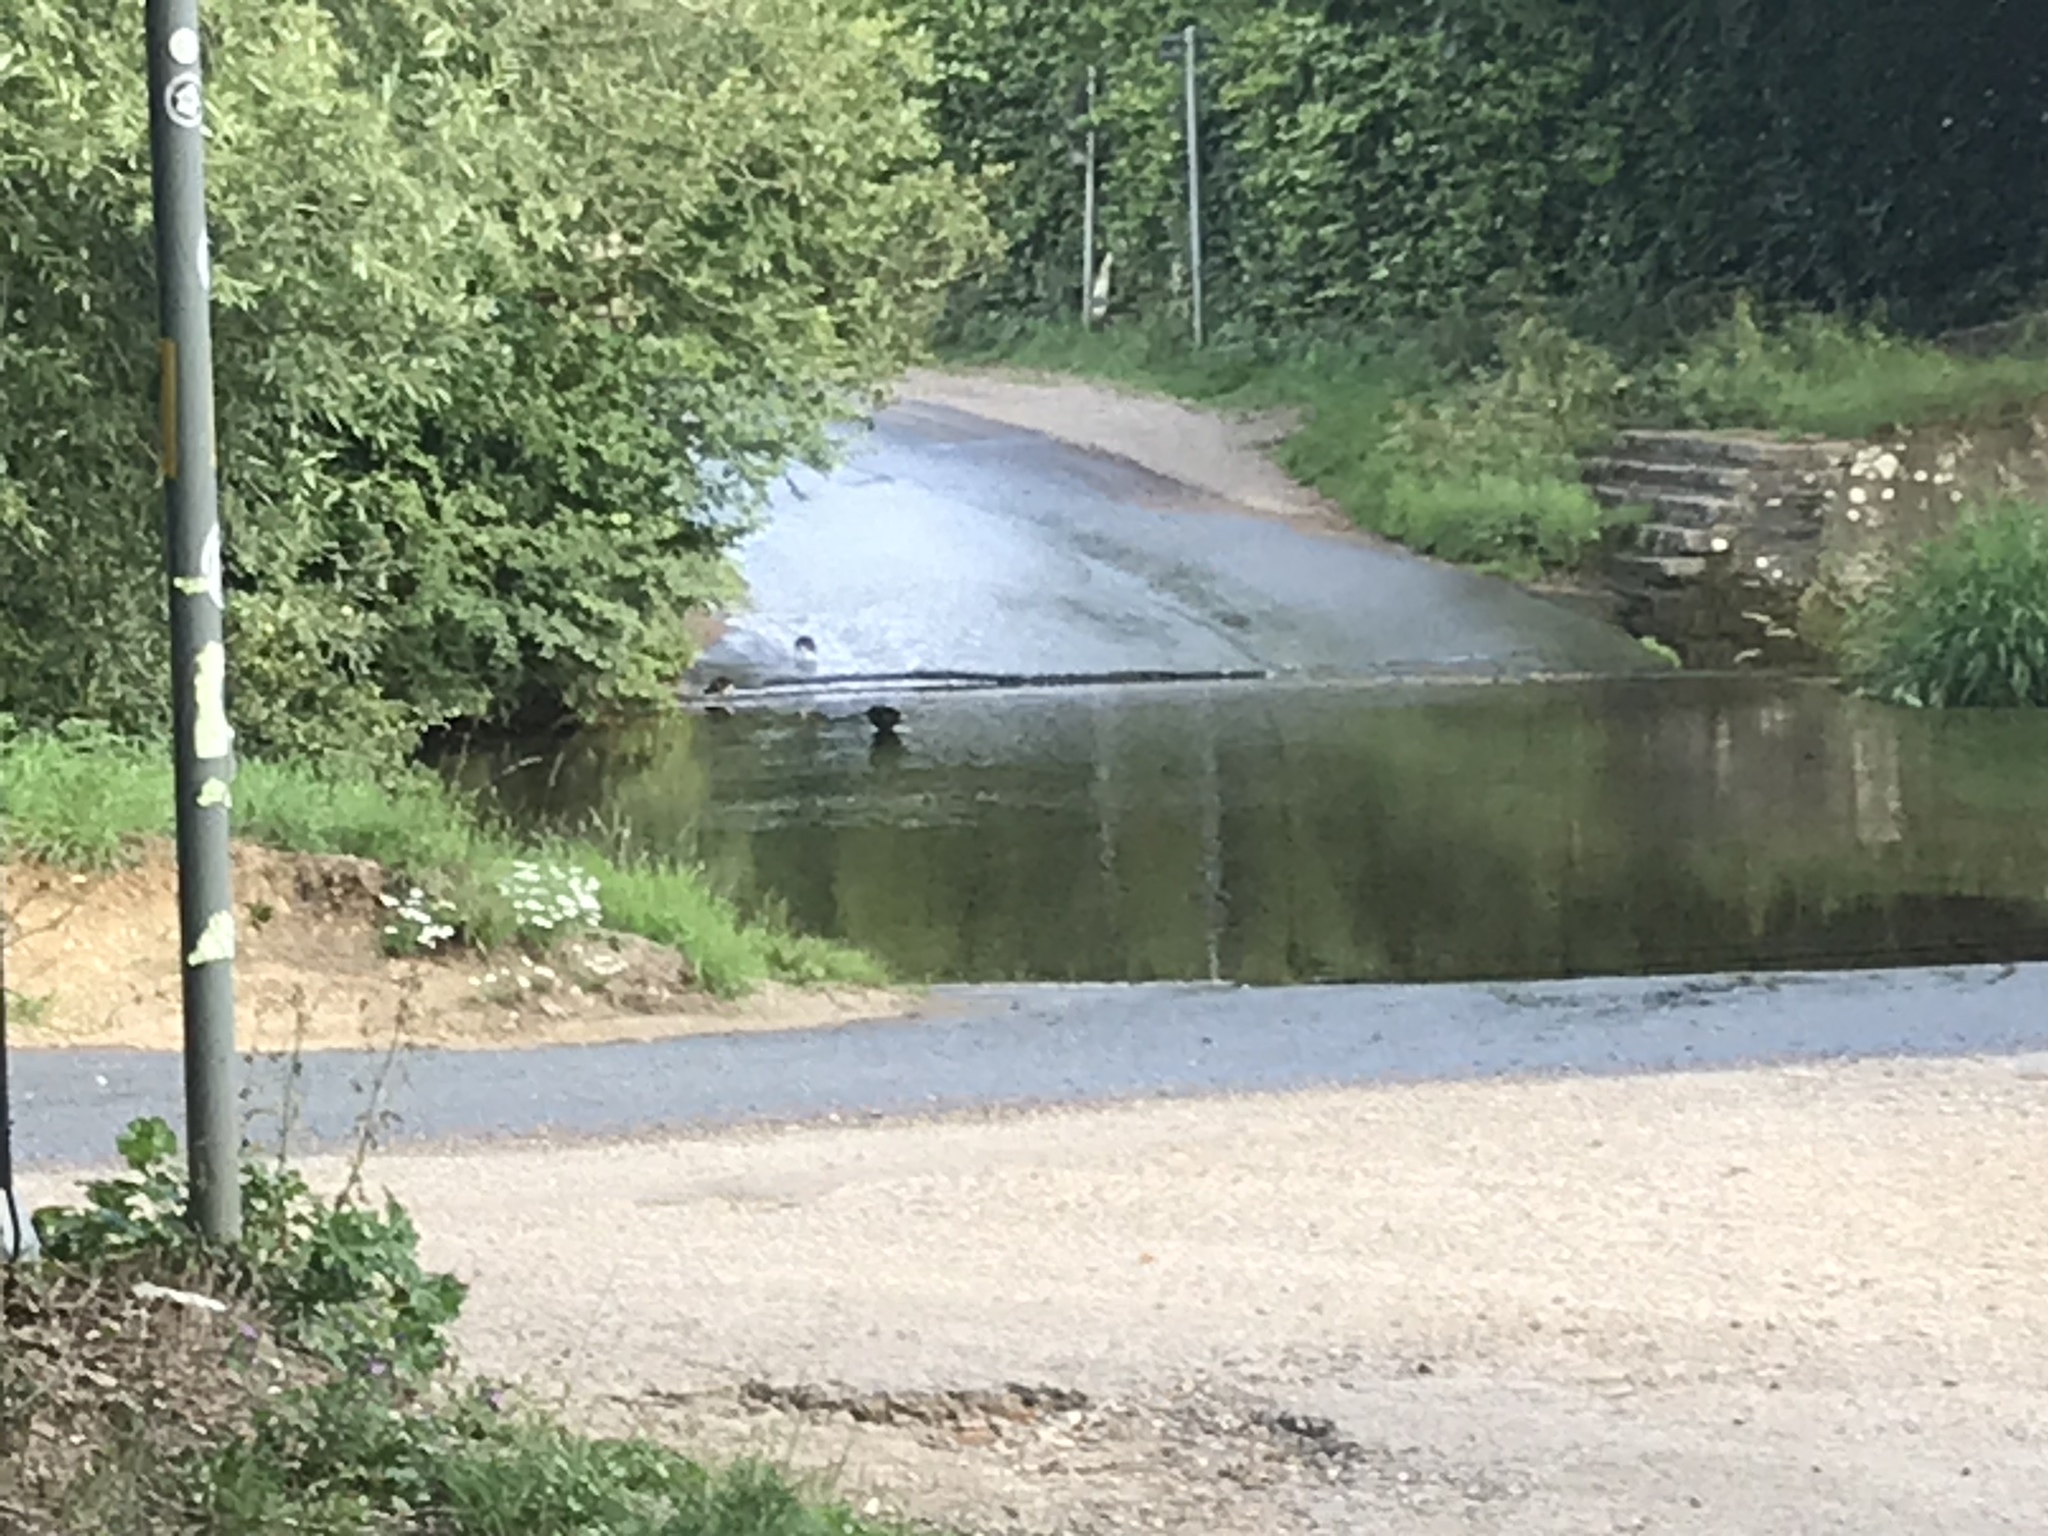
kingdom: Animalia
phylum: Chordata
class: Aves
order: Gruiformes
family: Rallidae
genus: Gallinula
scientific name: Gallinula chloropus
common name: Common moorhen
